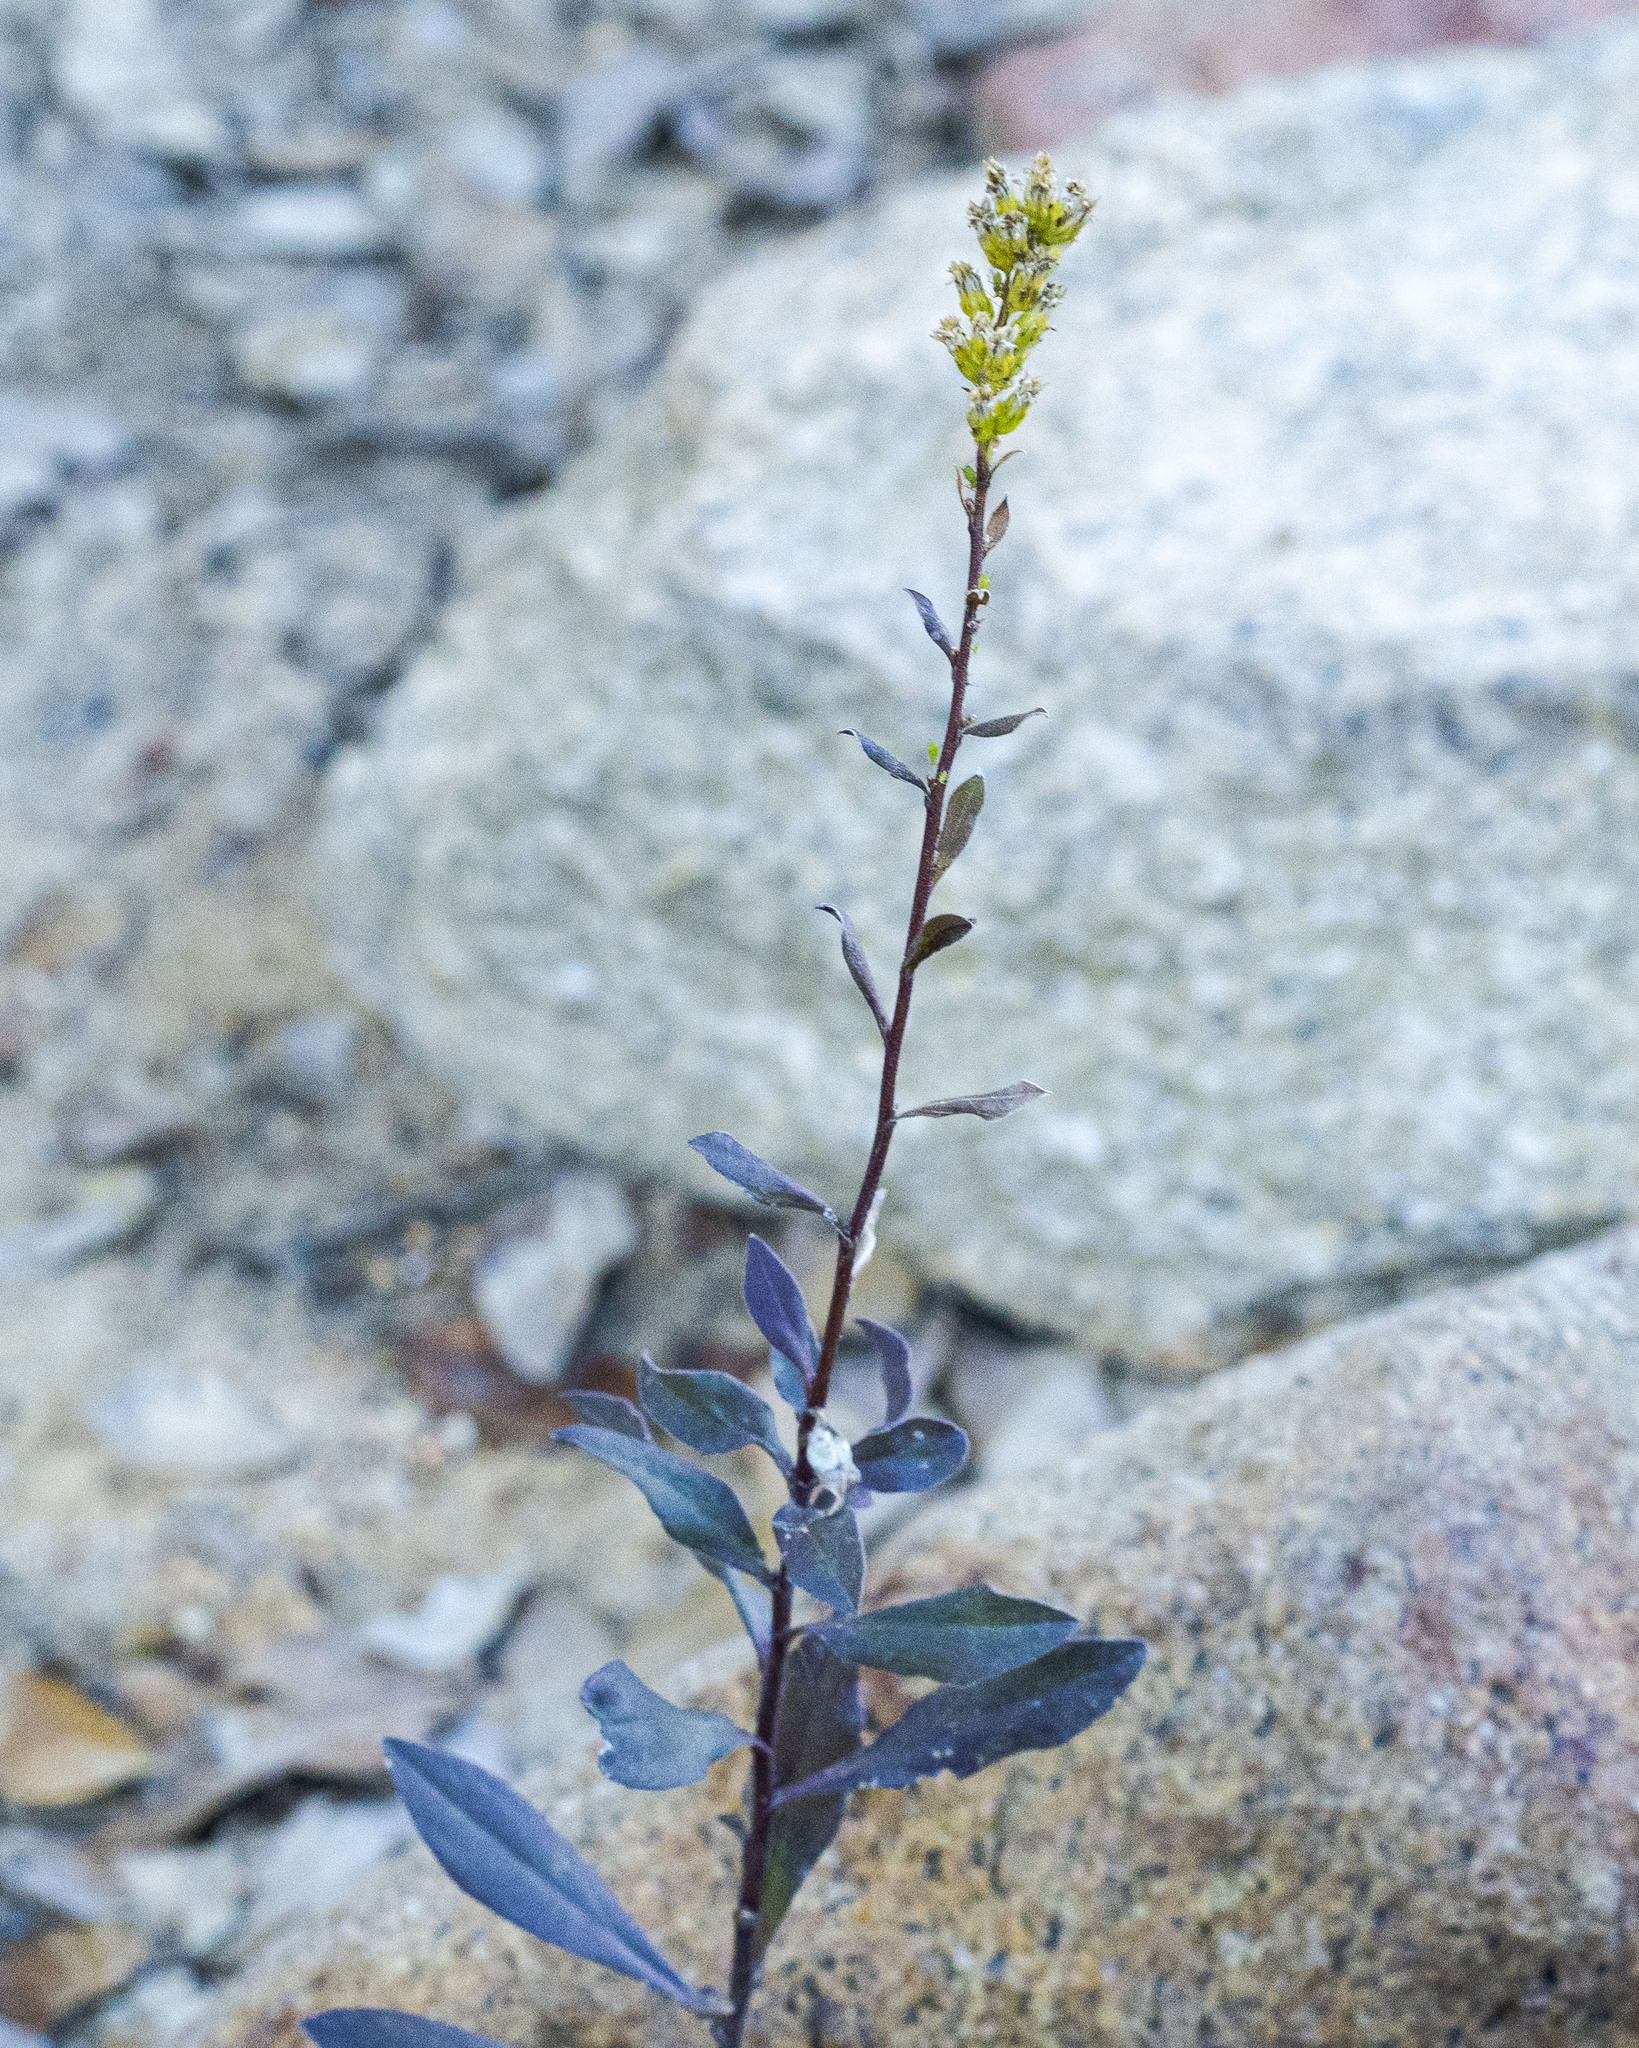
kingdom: Plantae
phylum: Tracheophyta
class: Magnoliopsida
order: Asterales
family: Asteraceae
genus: Solidago
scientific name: Solidago velutina
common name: Three-nerve goldenrod
